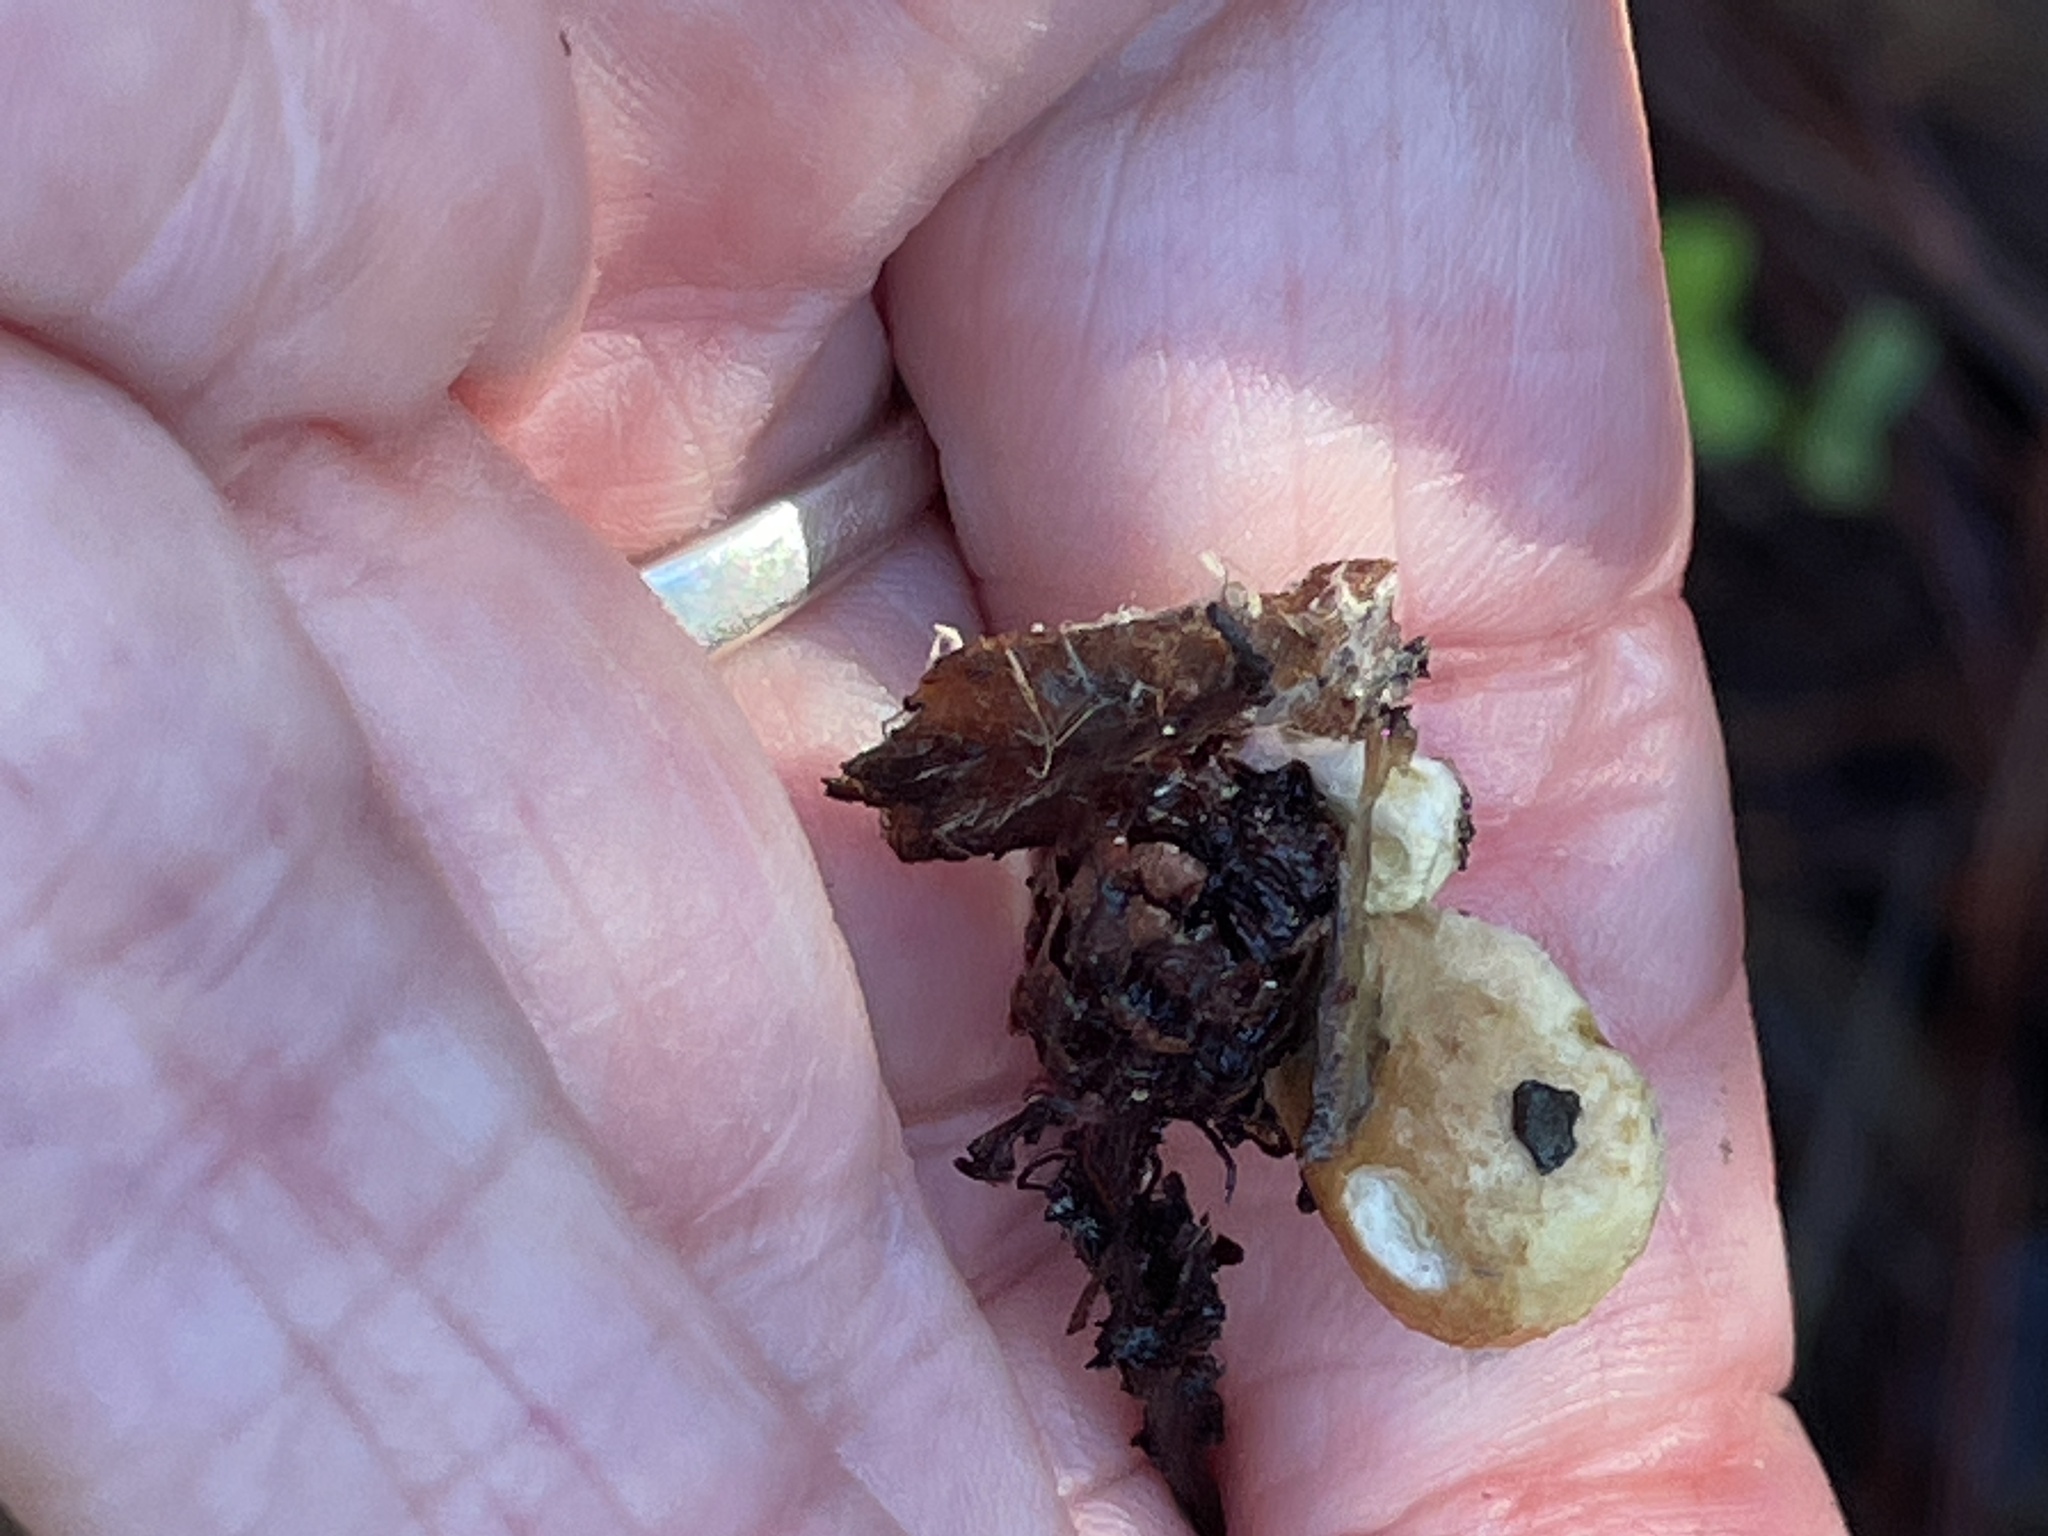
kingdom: Fungi
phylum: Basidiomycota
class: Agaricomycetes
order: Boletales
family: Tapinellaceae
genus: Tapinella
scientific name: Tapinella panuoides
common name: Oyster rollrim
